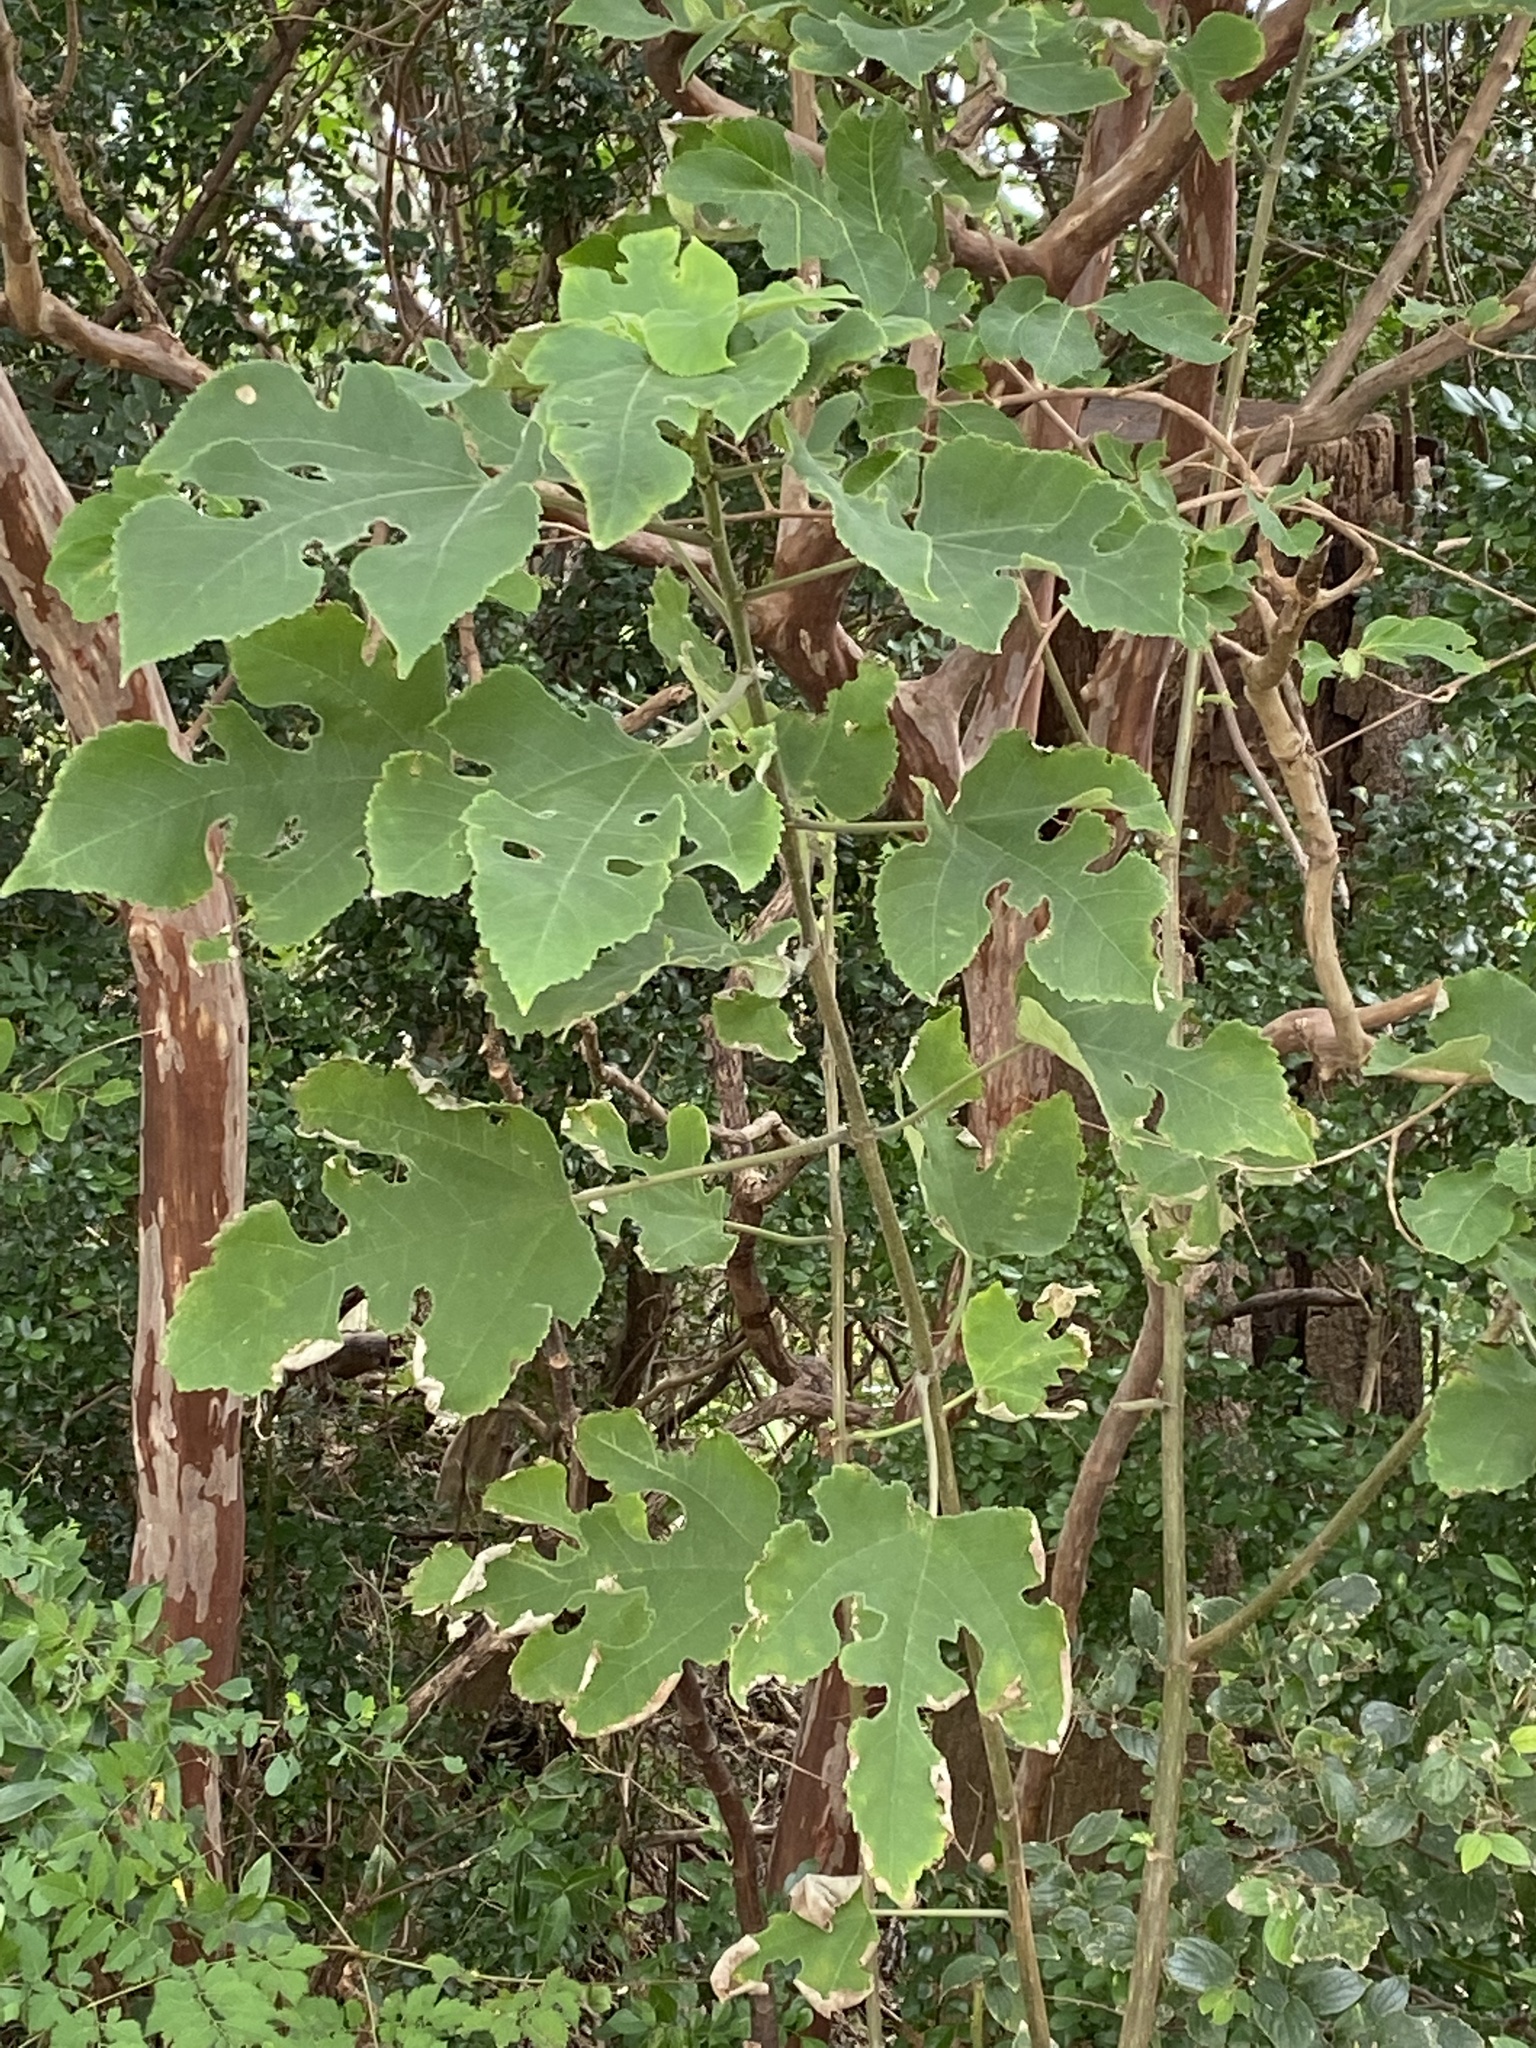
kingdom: Plantae
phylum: Tracheophyta
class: Magnoliopsida
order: Rosales
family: Moraceae
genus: Broussonetia
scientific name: Broussonetia papyrifera
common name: Paper mulberry
